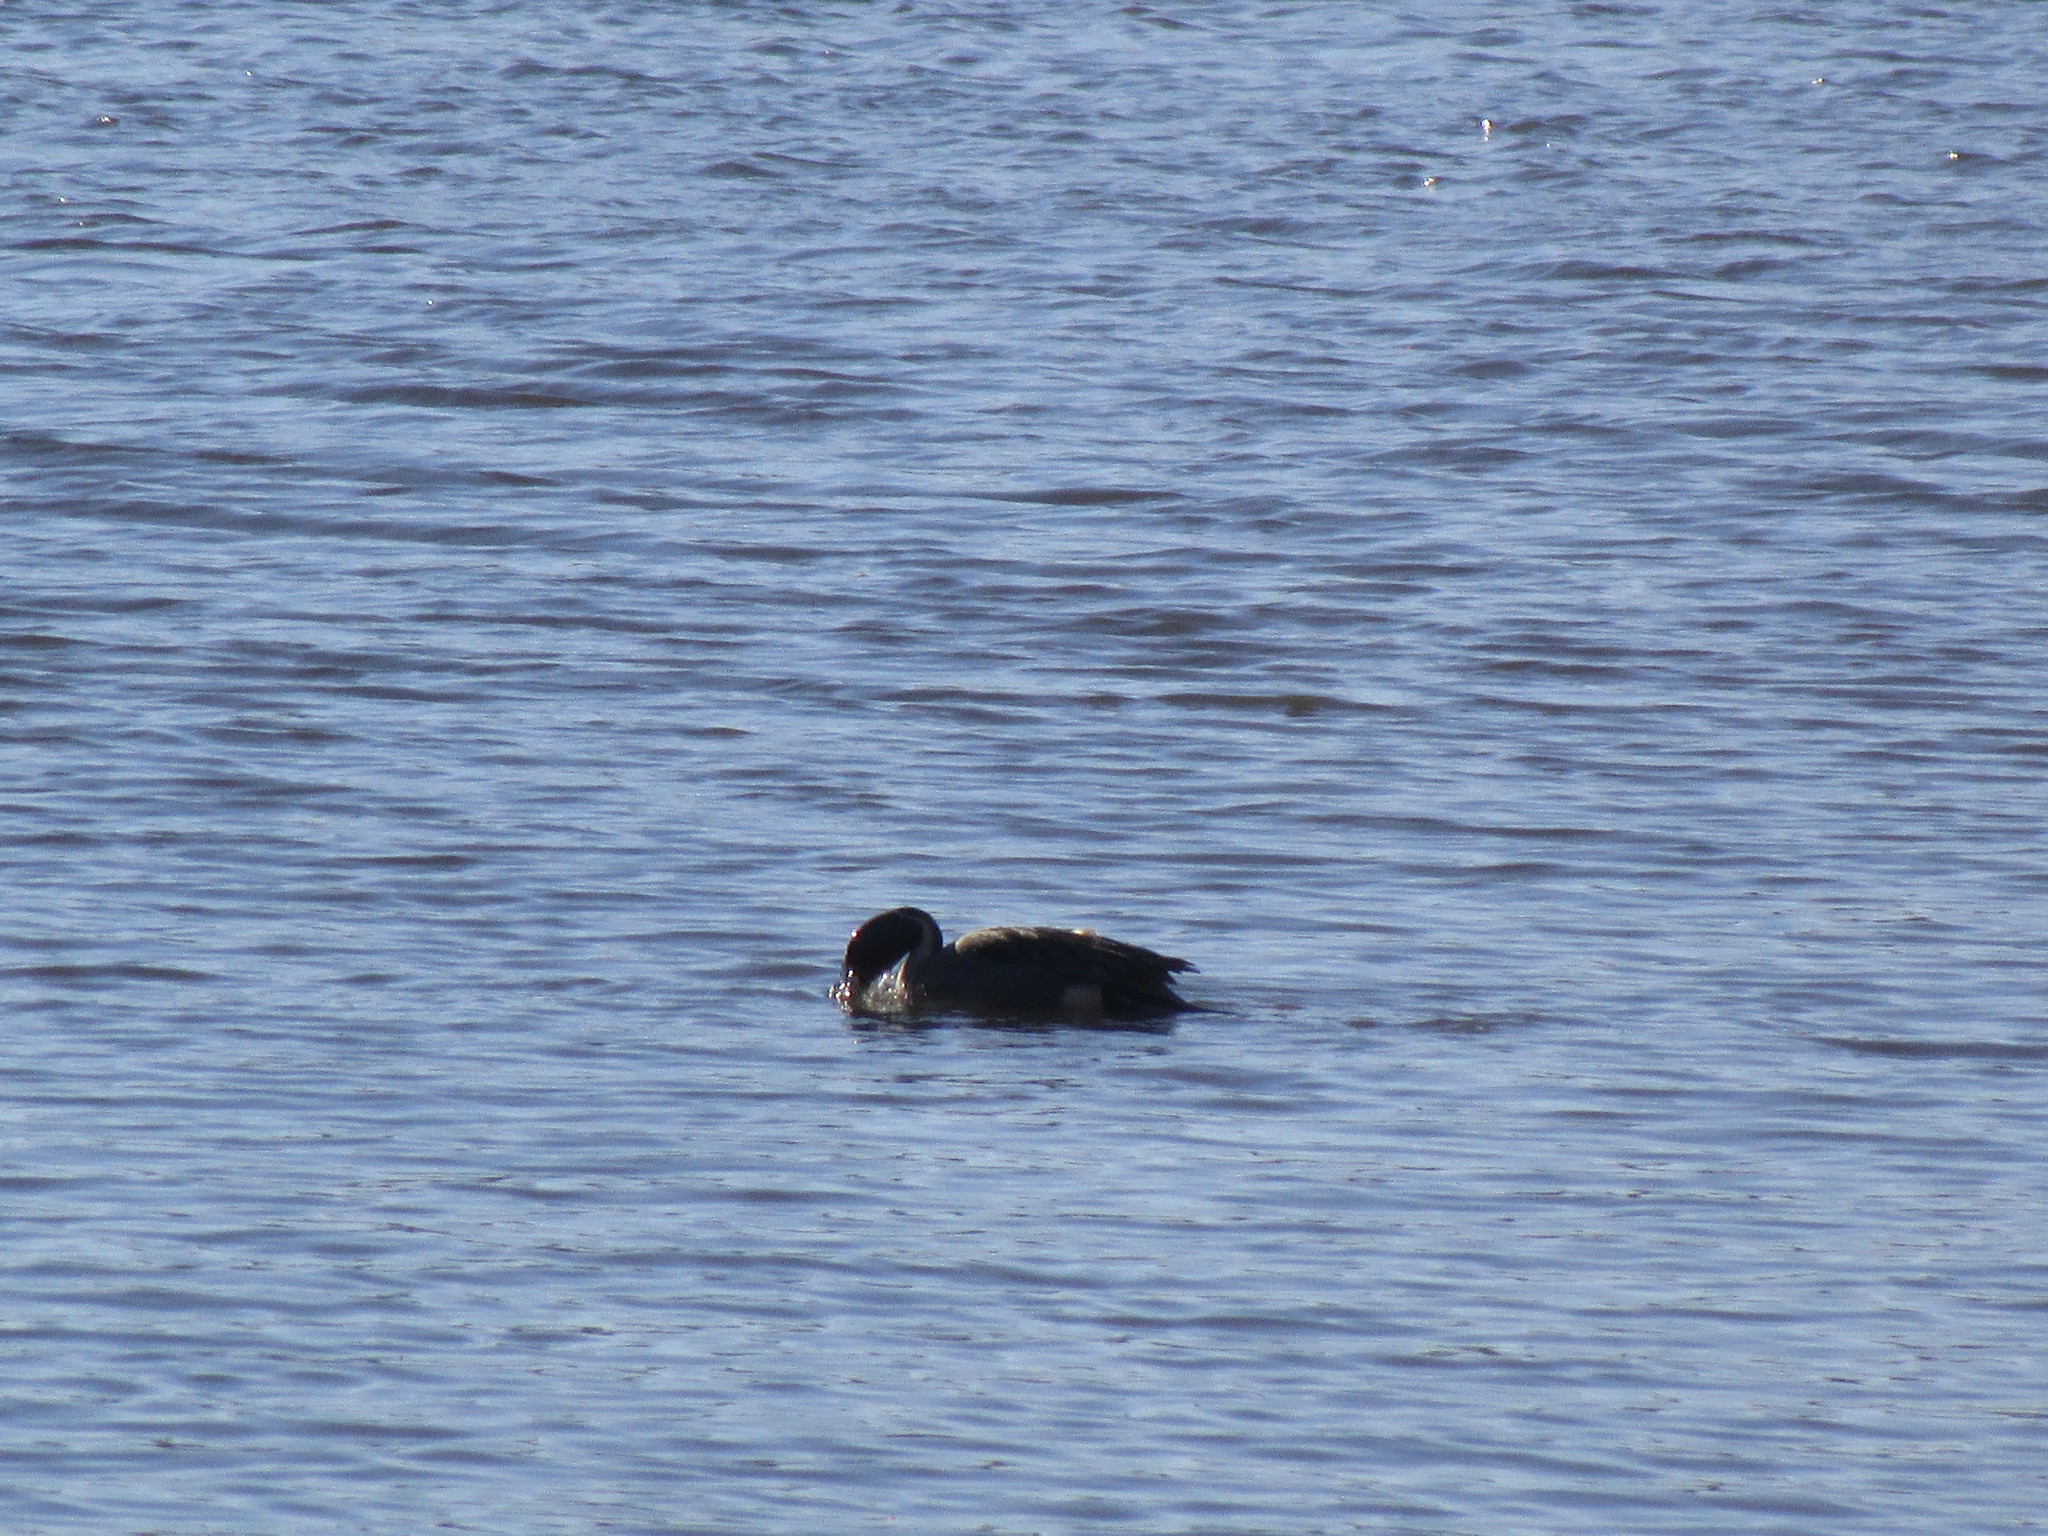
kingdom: Animalia
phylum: Chordata
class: Aves
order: Anseriformes
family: Anatidae
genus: Anas
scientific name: Anas acuta
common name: Northern pintail
